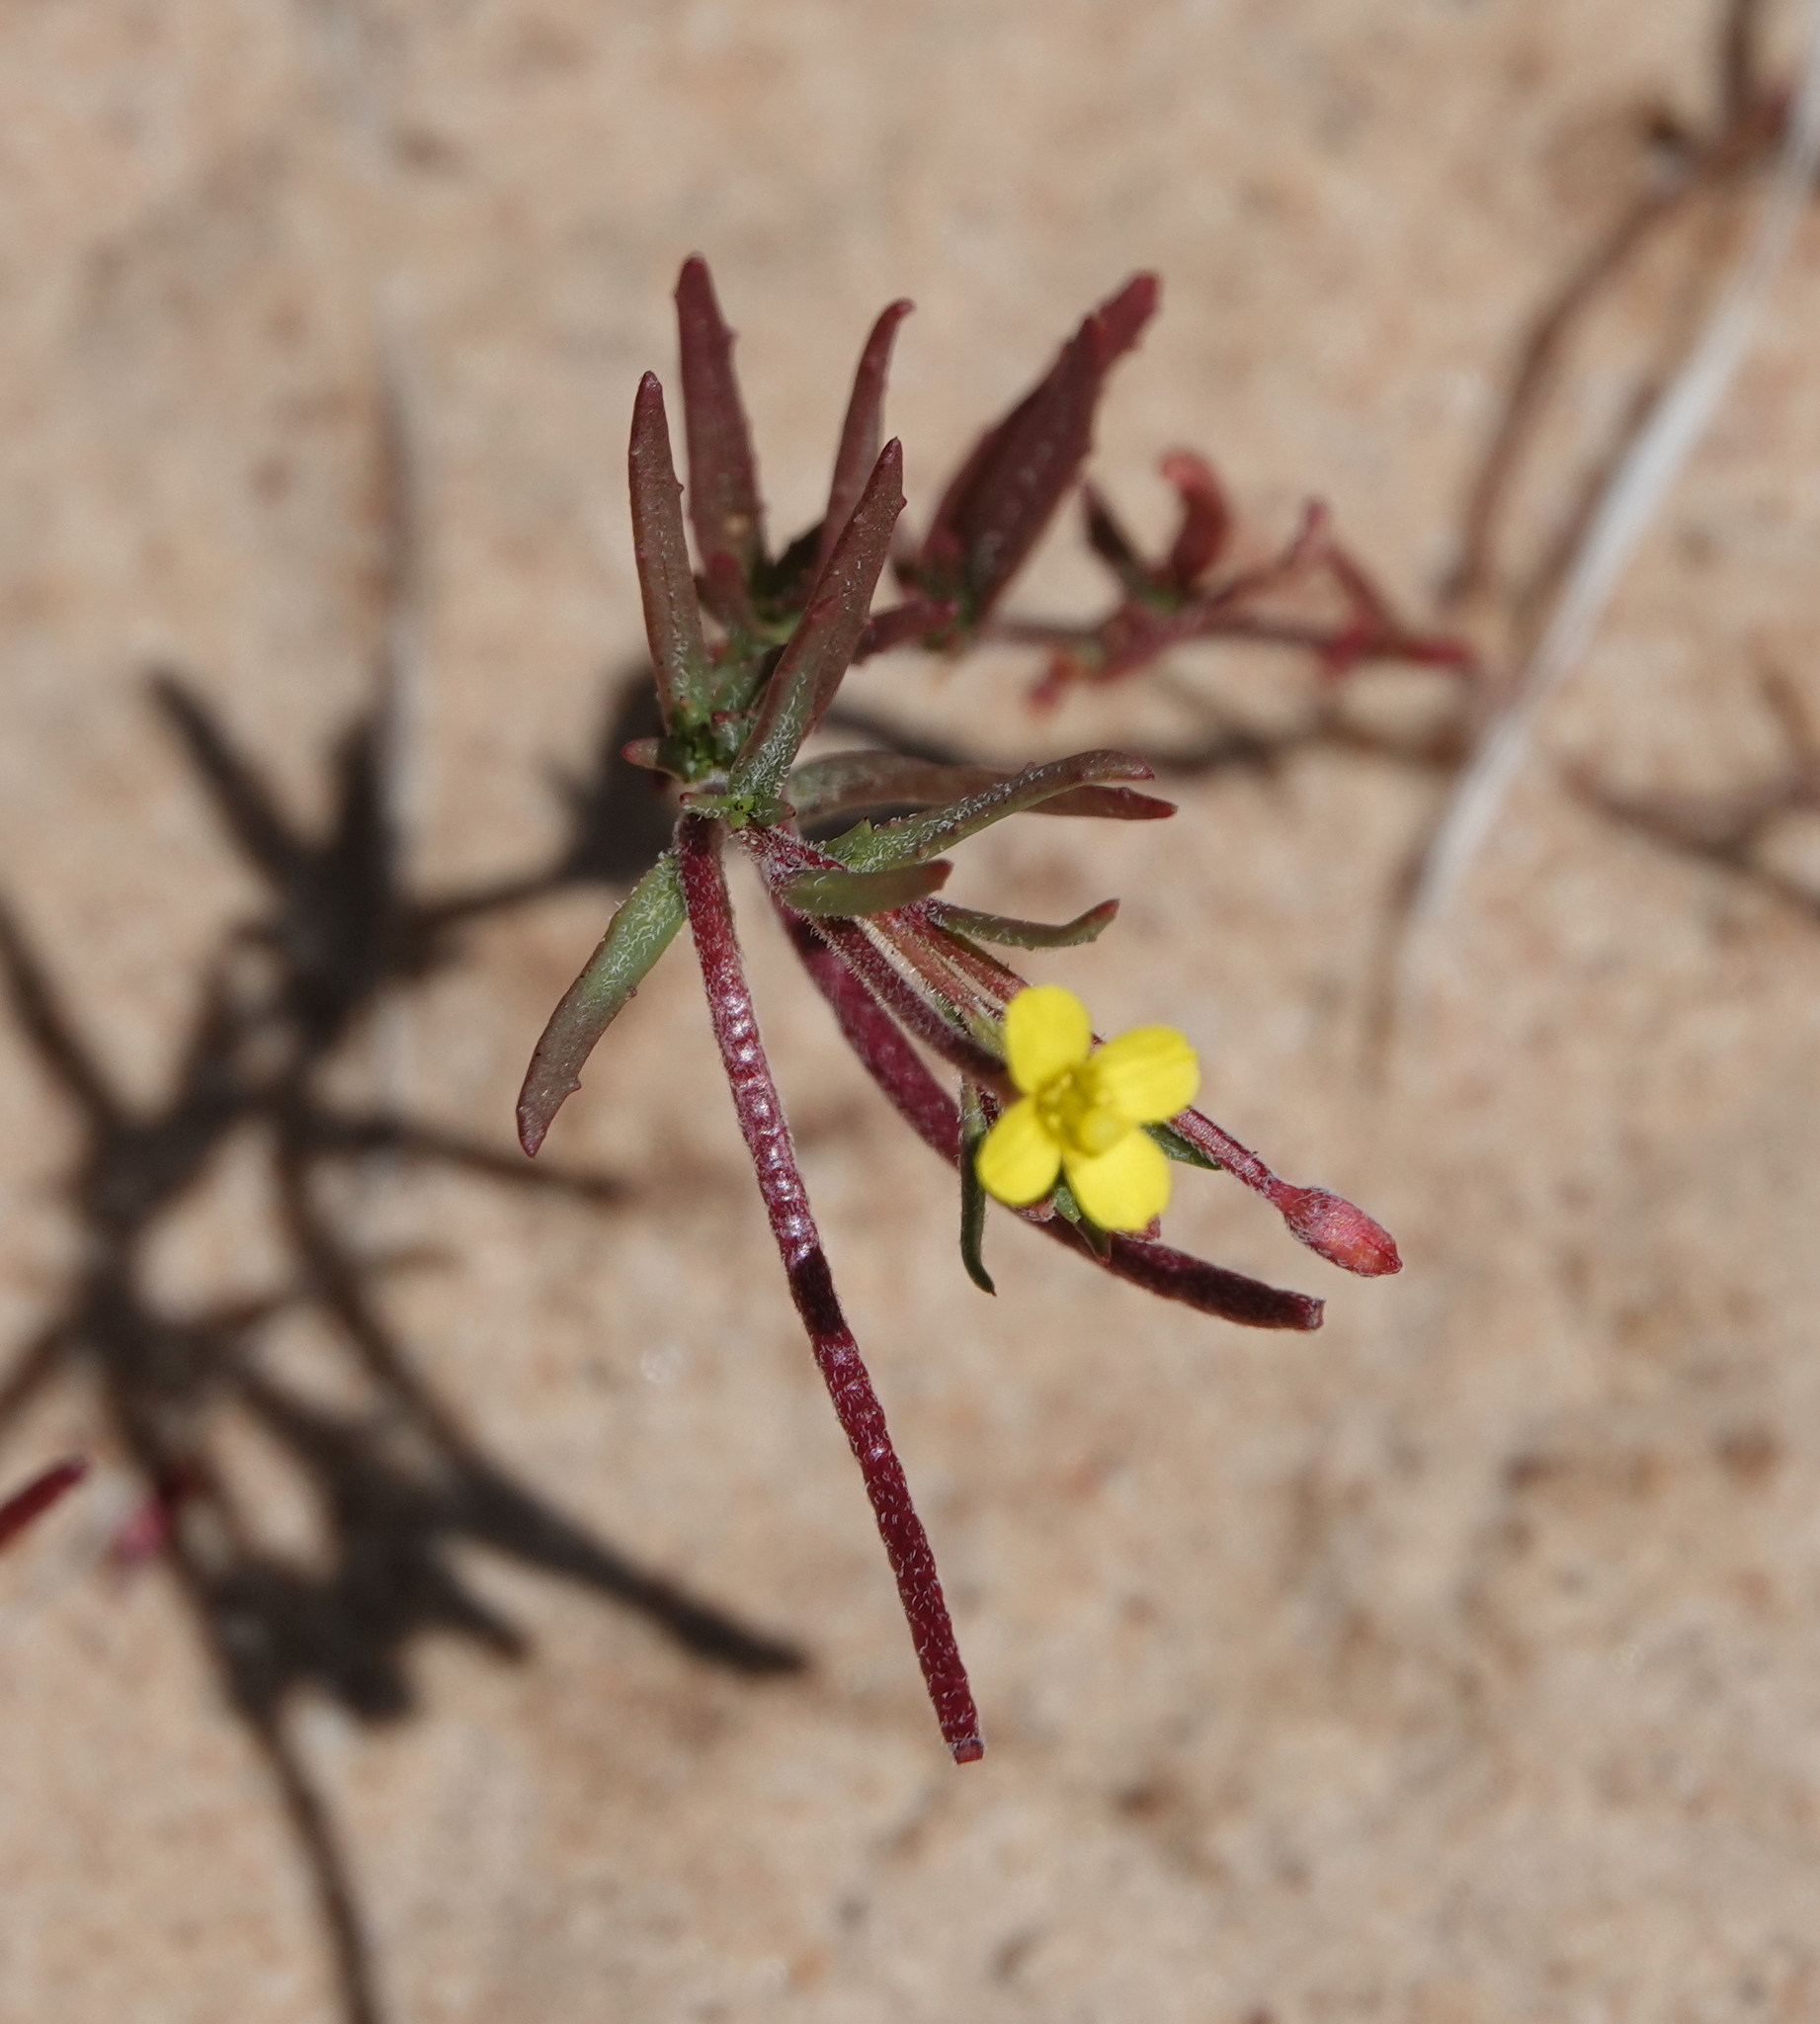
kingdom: Plantae
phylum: Tracheophyta
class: Magnoliopsida
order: Myrtales
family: Onagraceae
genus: Camissonia
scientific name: Camissonia strigulosa
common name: Contorted-primrose
